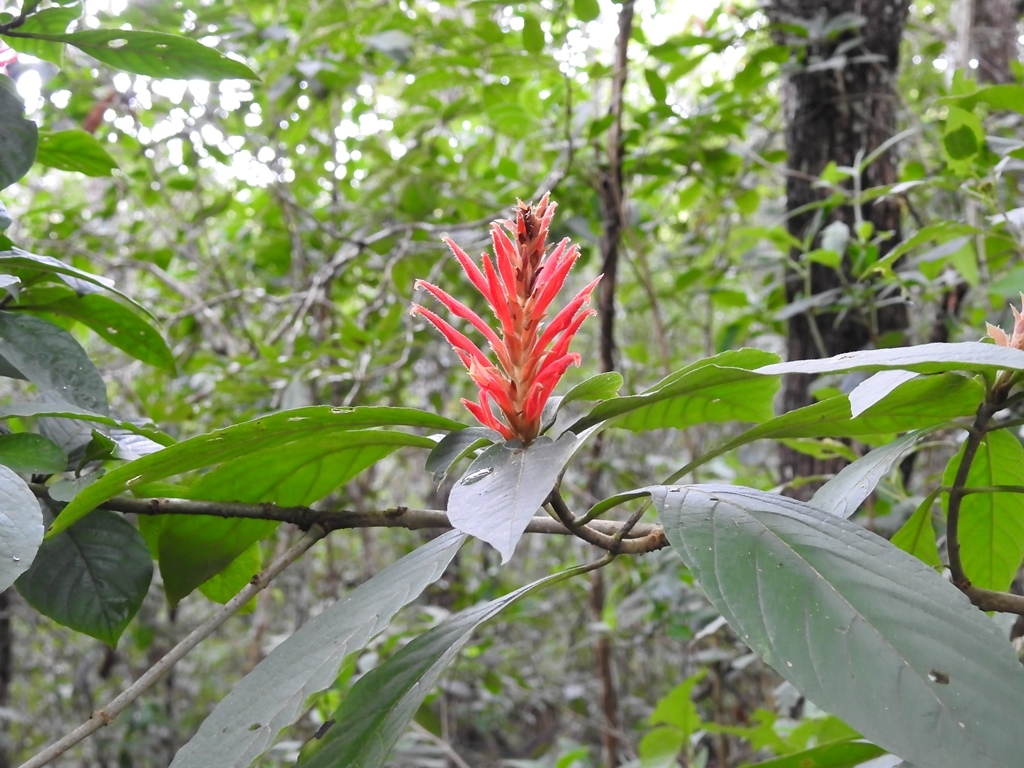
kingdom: Plantae
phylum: Tracheophyta
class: Magnoliopsida
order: Lamiales
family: Acanthaceae
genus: Aphelandra
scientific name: Aphelandra scabra
